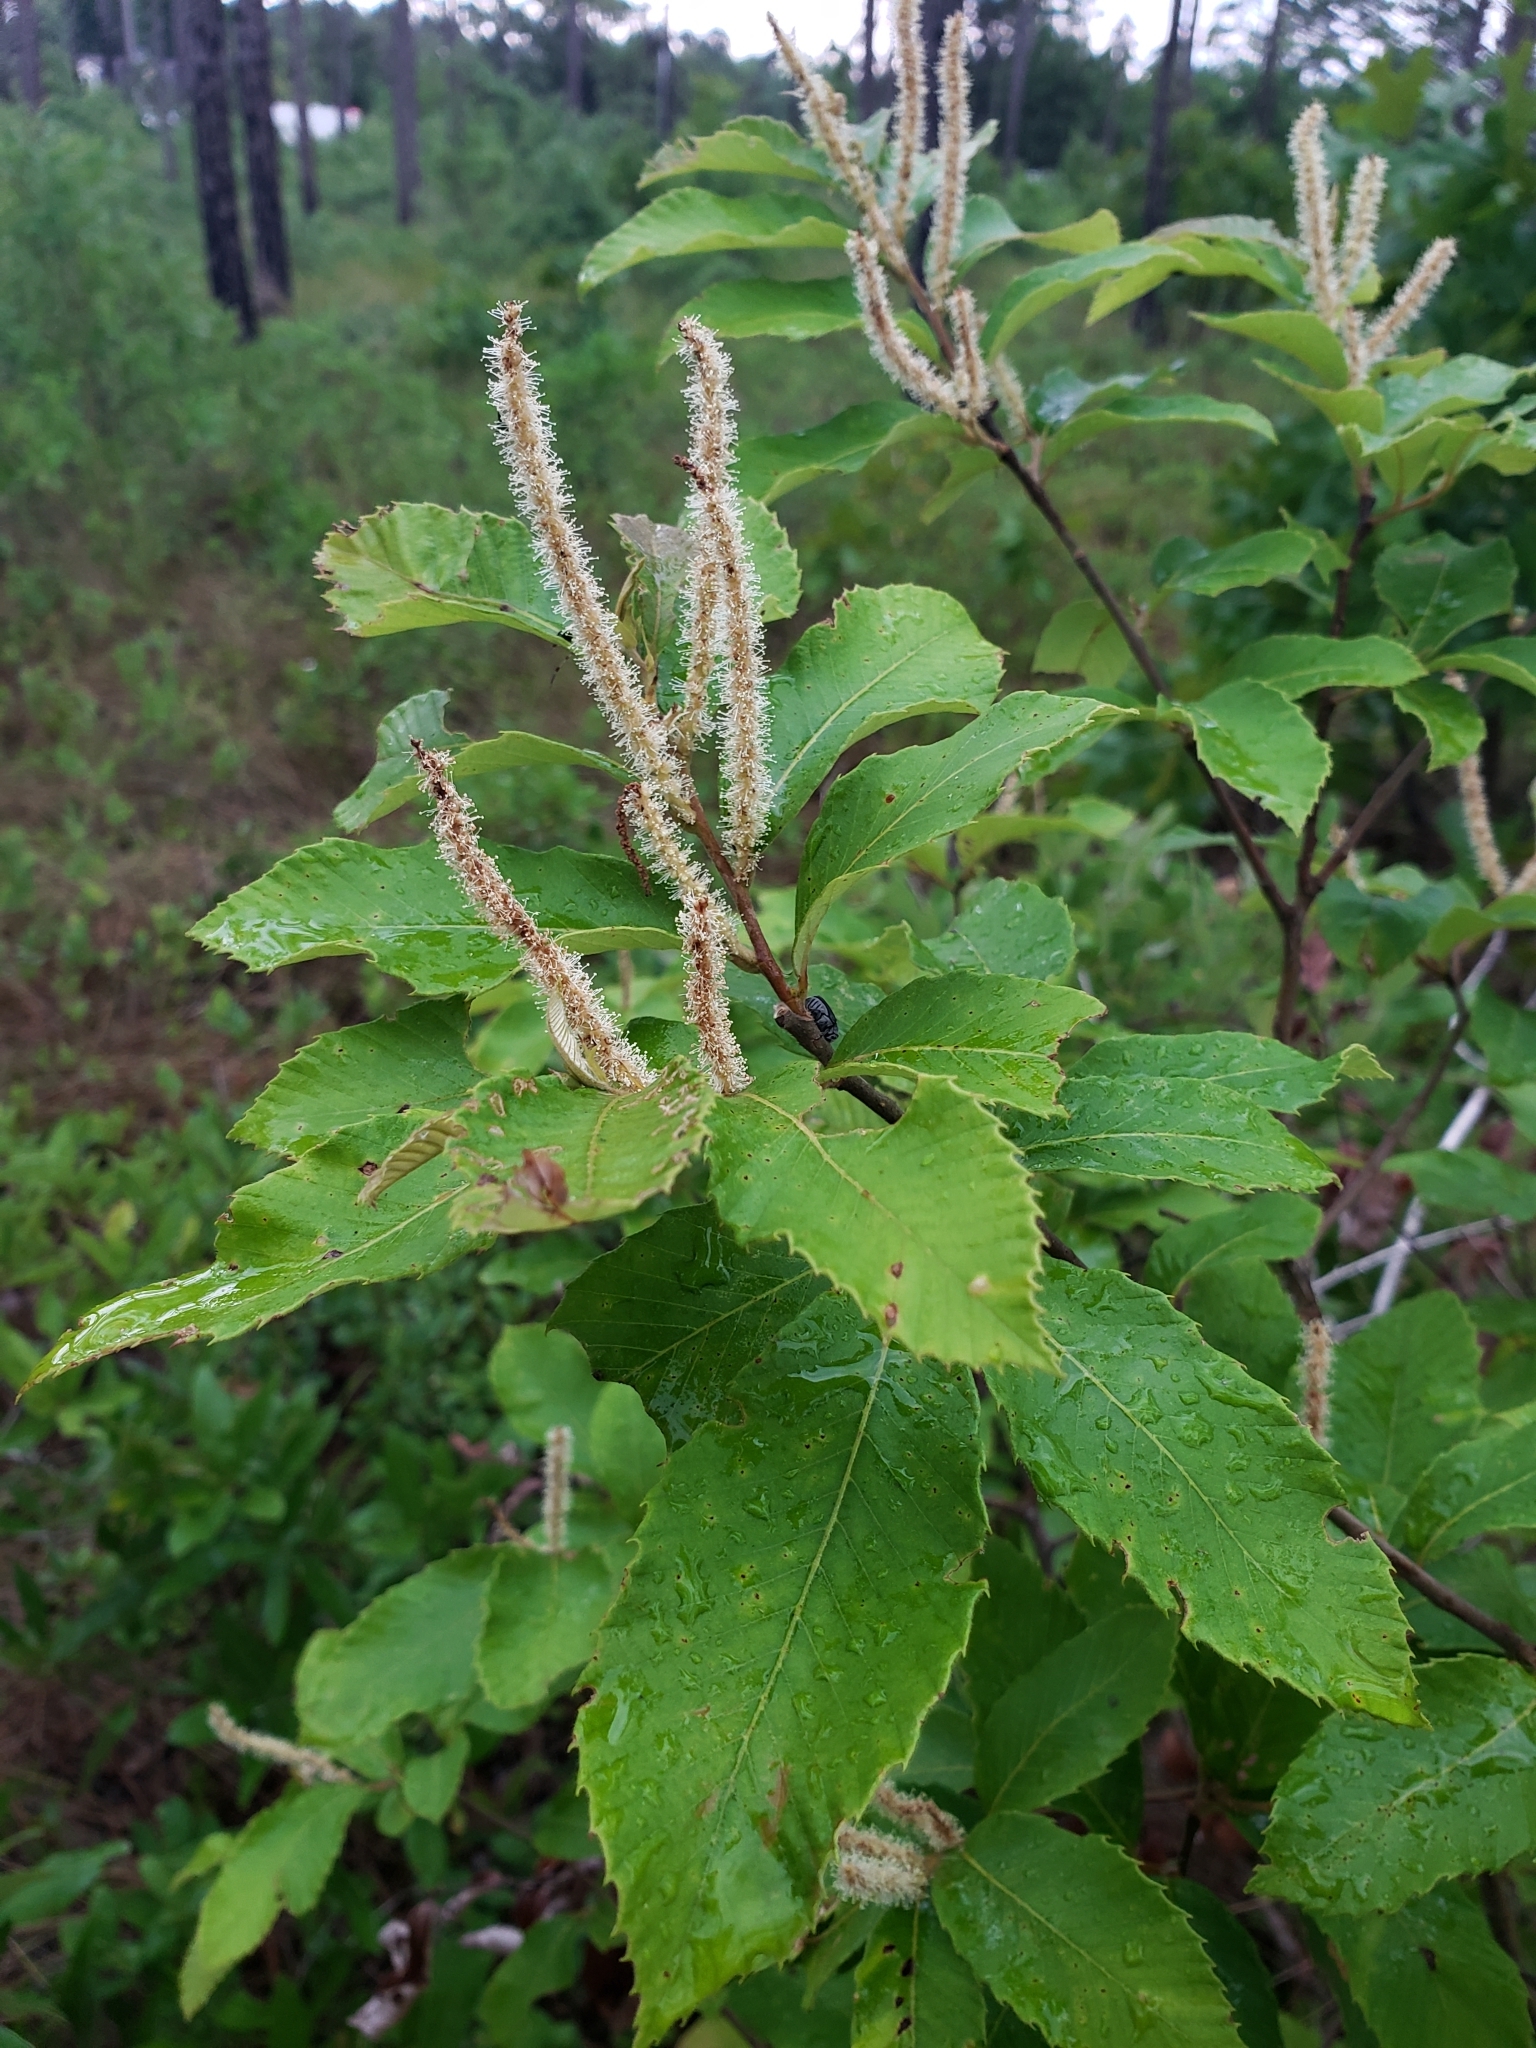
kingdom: Plantae
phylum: Tracheophyta
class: Magnoliopsida
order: Fagales
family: Fagaceae
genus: Castanea
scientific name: Castanea pumila
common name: Chinkapin
